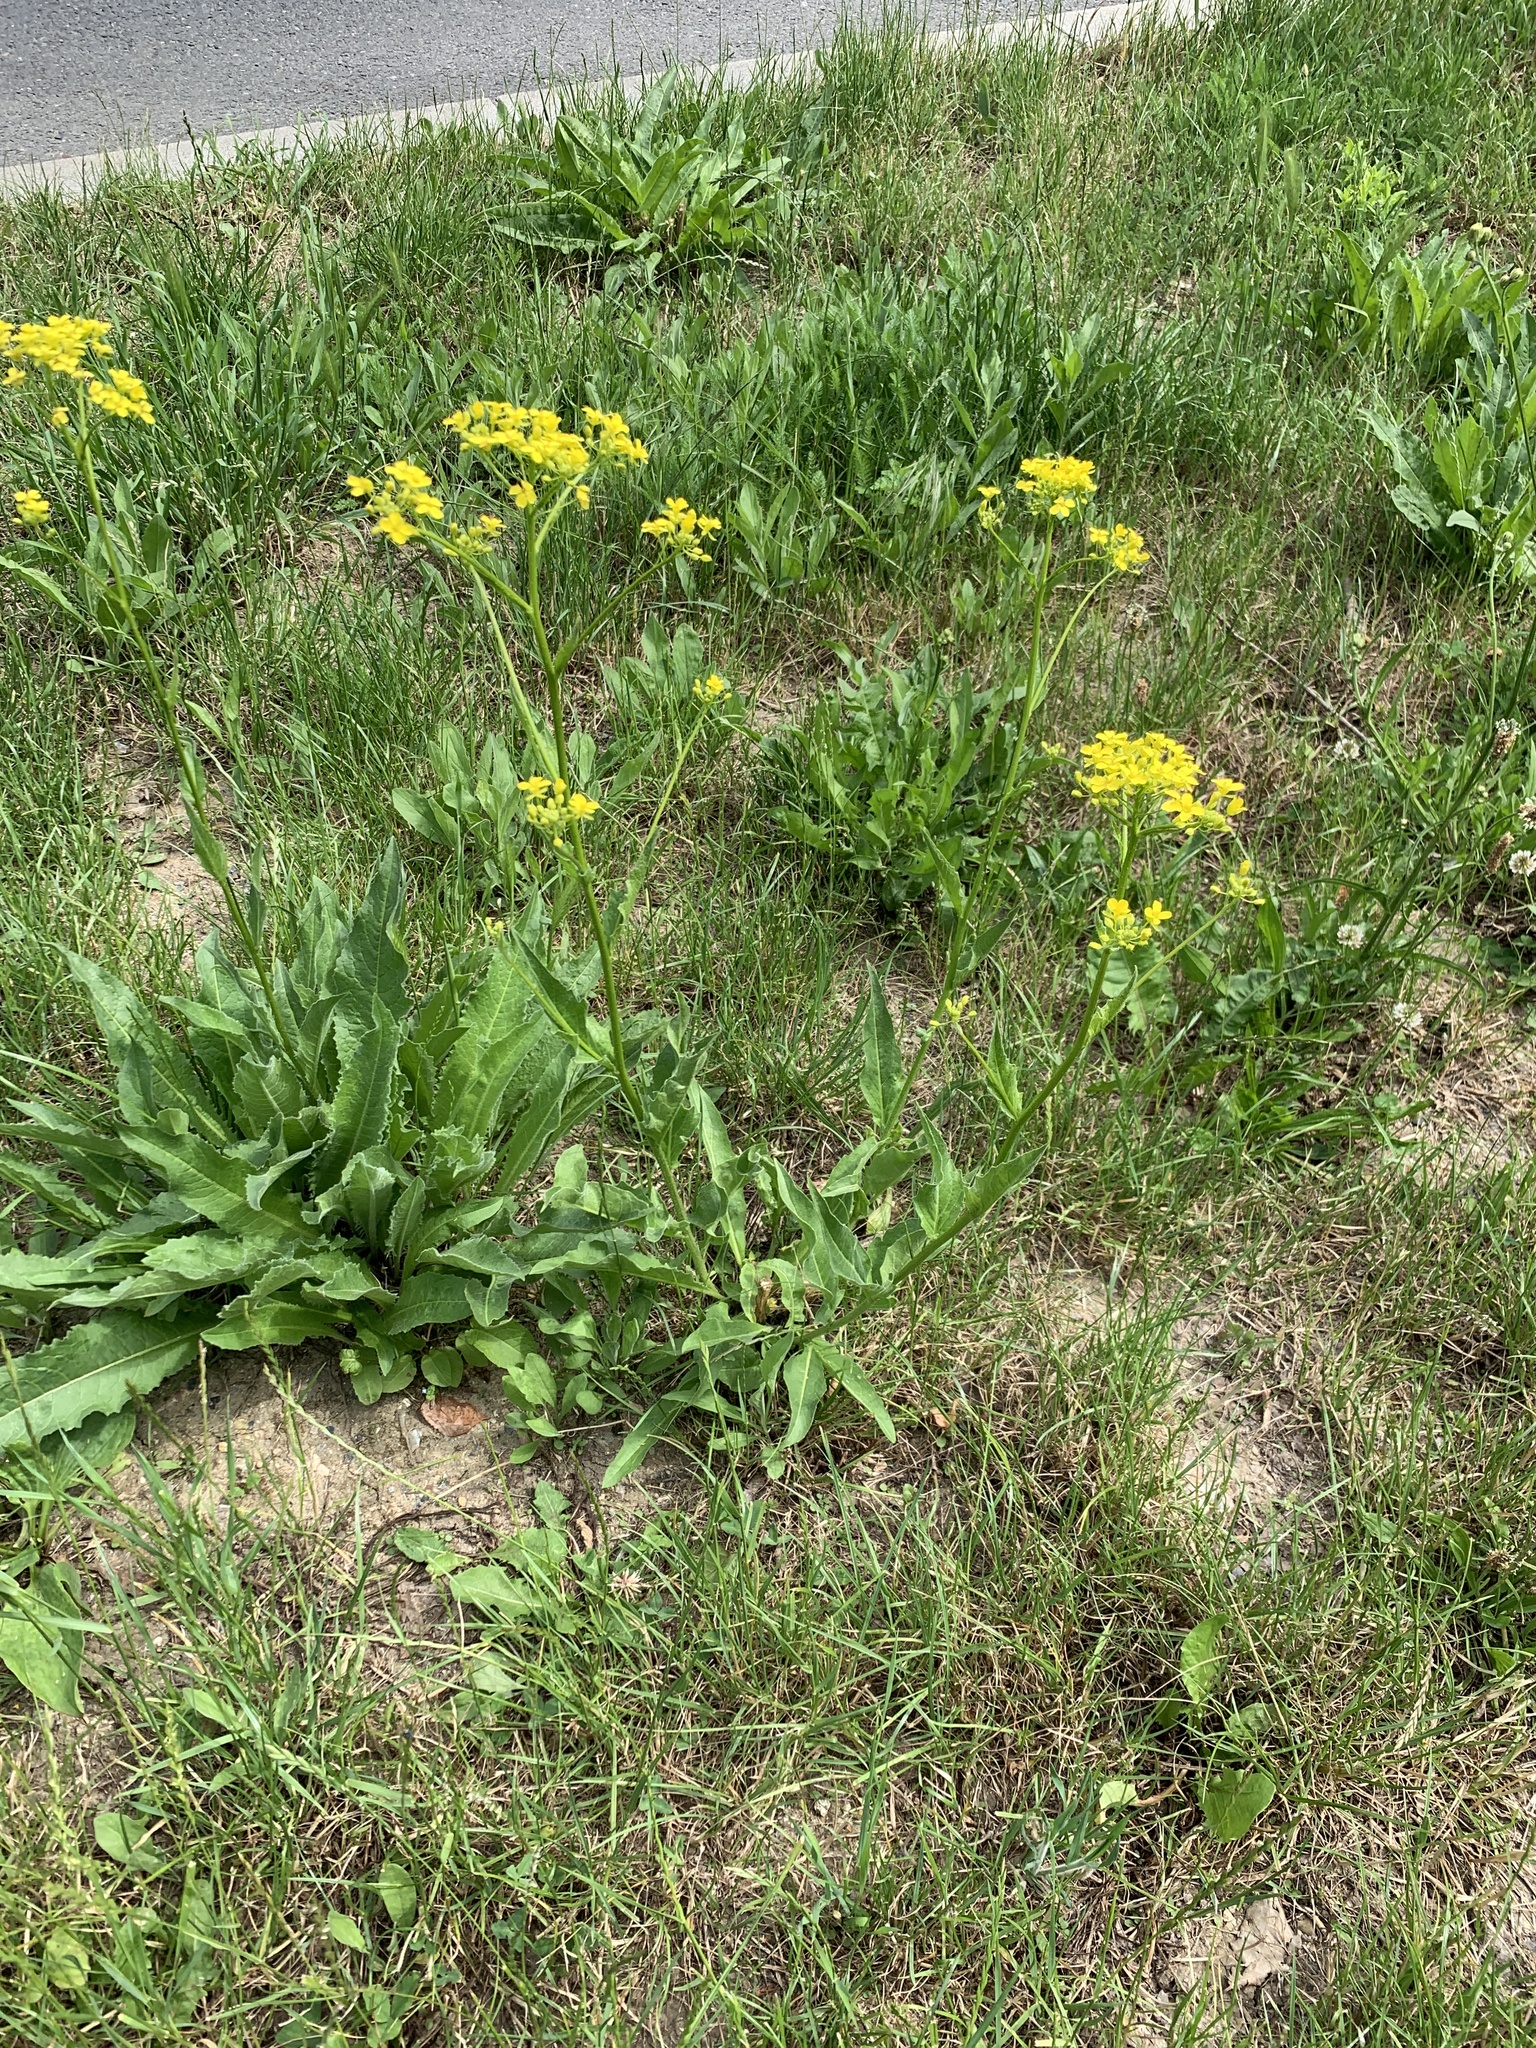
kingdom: Plantae
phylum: Tracheophyta
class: Magnoliopsida
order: Brassicales
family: Brassicaceae
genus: Bunias
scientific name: Bunias orientalis
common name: Warty-cabbage
